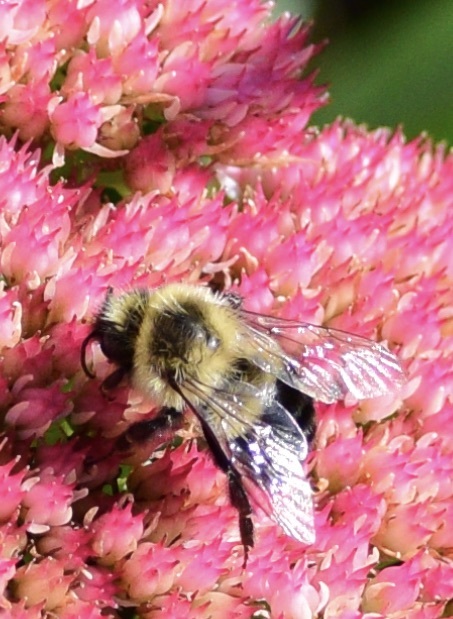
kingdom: Animalia
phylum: Arthropoda
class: Insecta
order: Hymenoptera
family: Apidae
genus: Bombus
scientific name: Bombus impatiens
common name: Common eastern bumble bee
